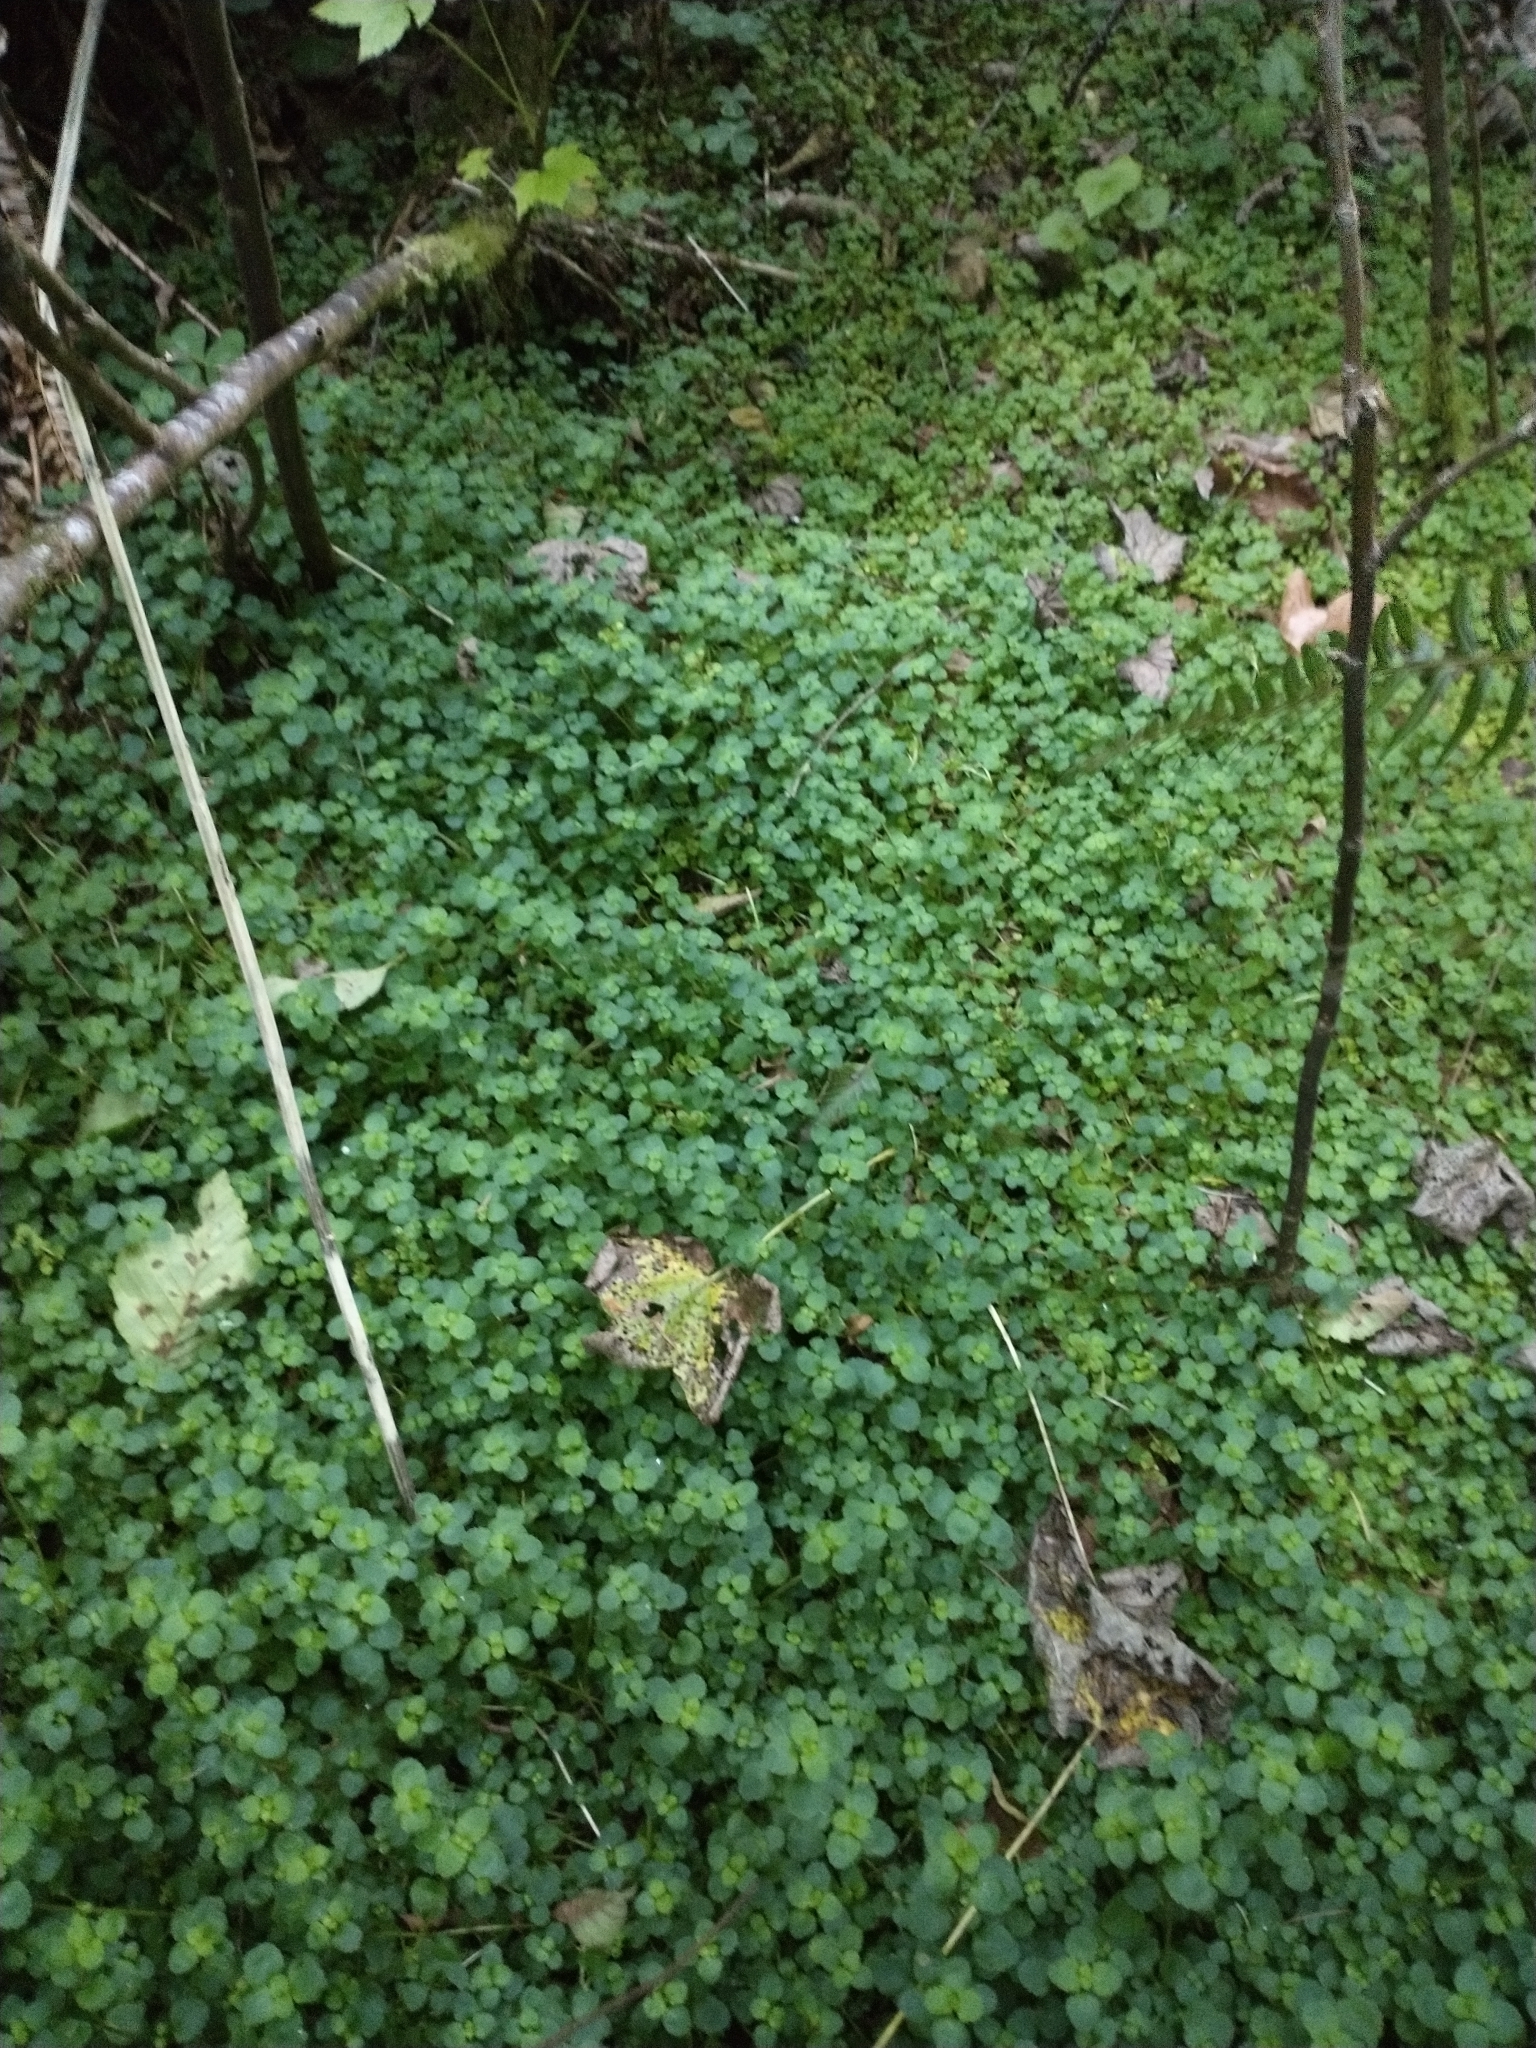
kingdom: Plantae
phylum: Tracheophyta
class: Magnoliopsida
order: Saxifragales
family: Saxifragaceae
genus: Chrysosplenium
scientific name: Chrysosplenium glechomifolium
